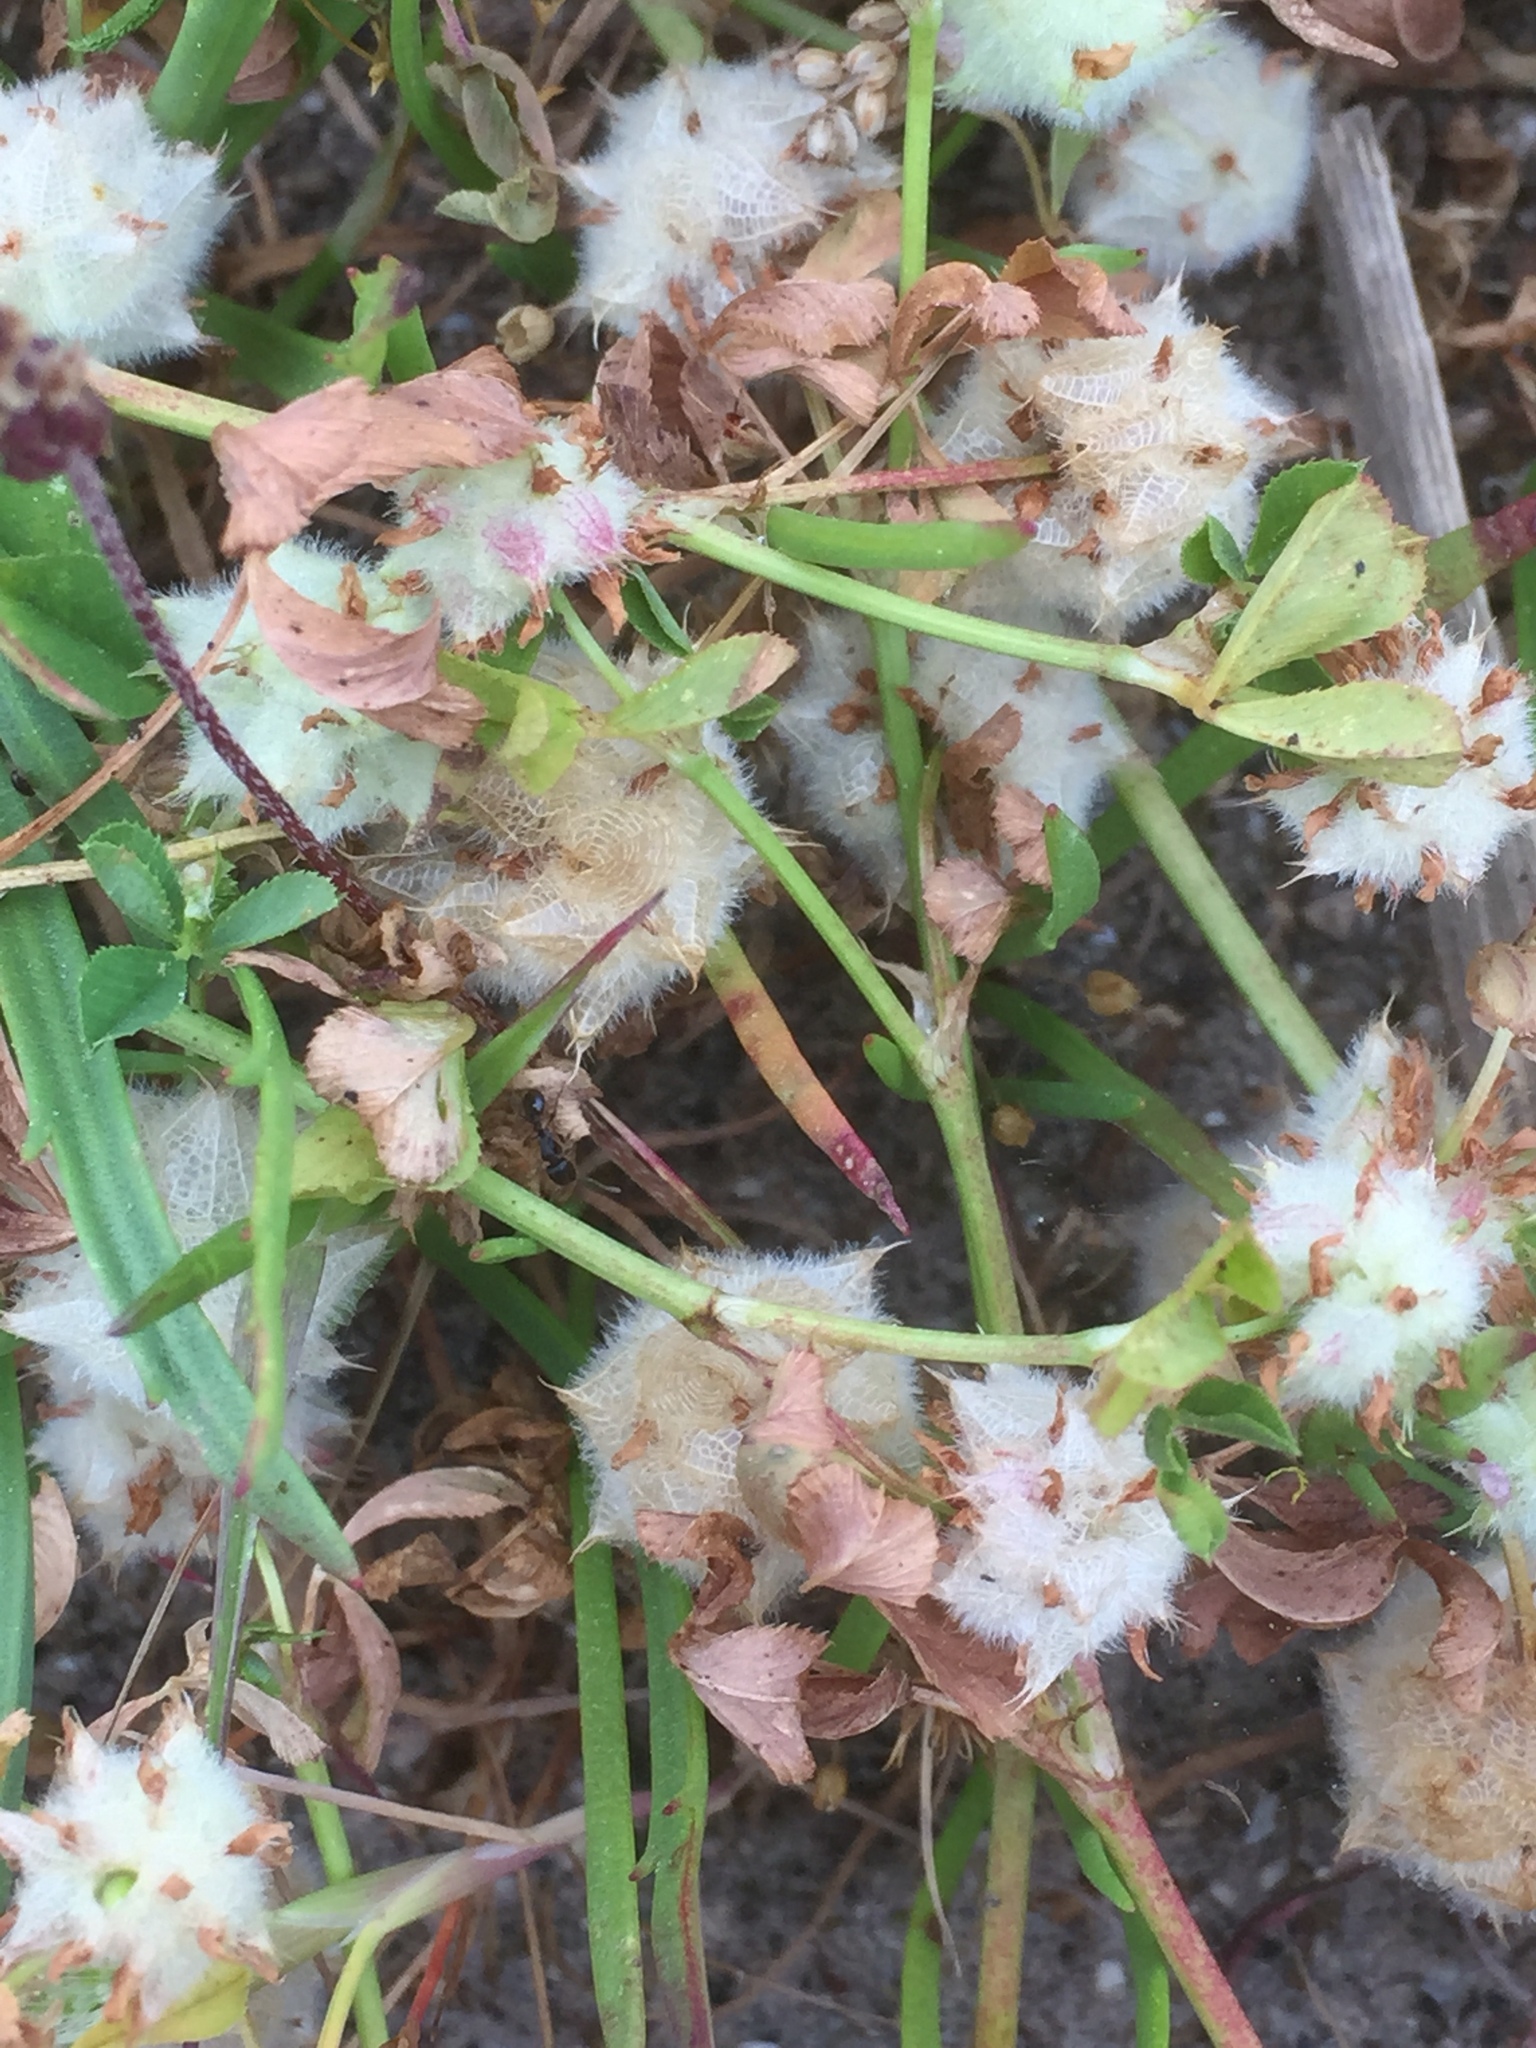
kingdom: Plantae
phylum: Tracheophyta
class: Magnoliopsida
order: Fabales
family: Fabaceae
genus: Trifolium
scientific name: Trifolium tomentosum
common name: Woolly clover
